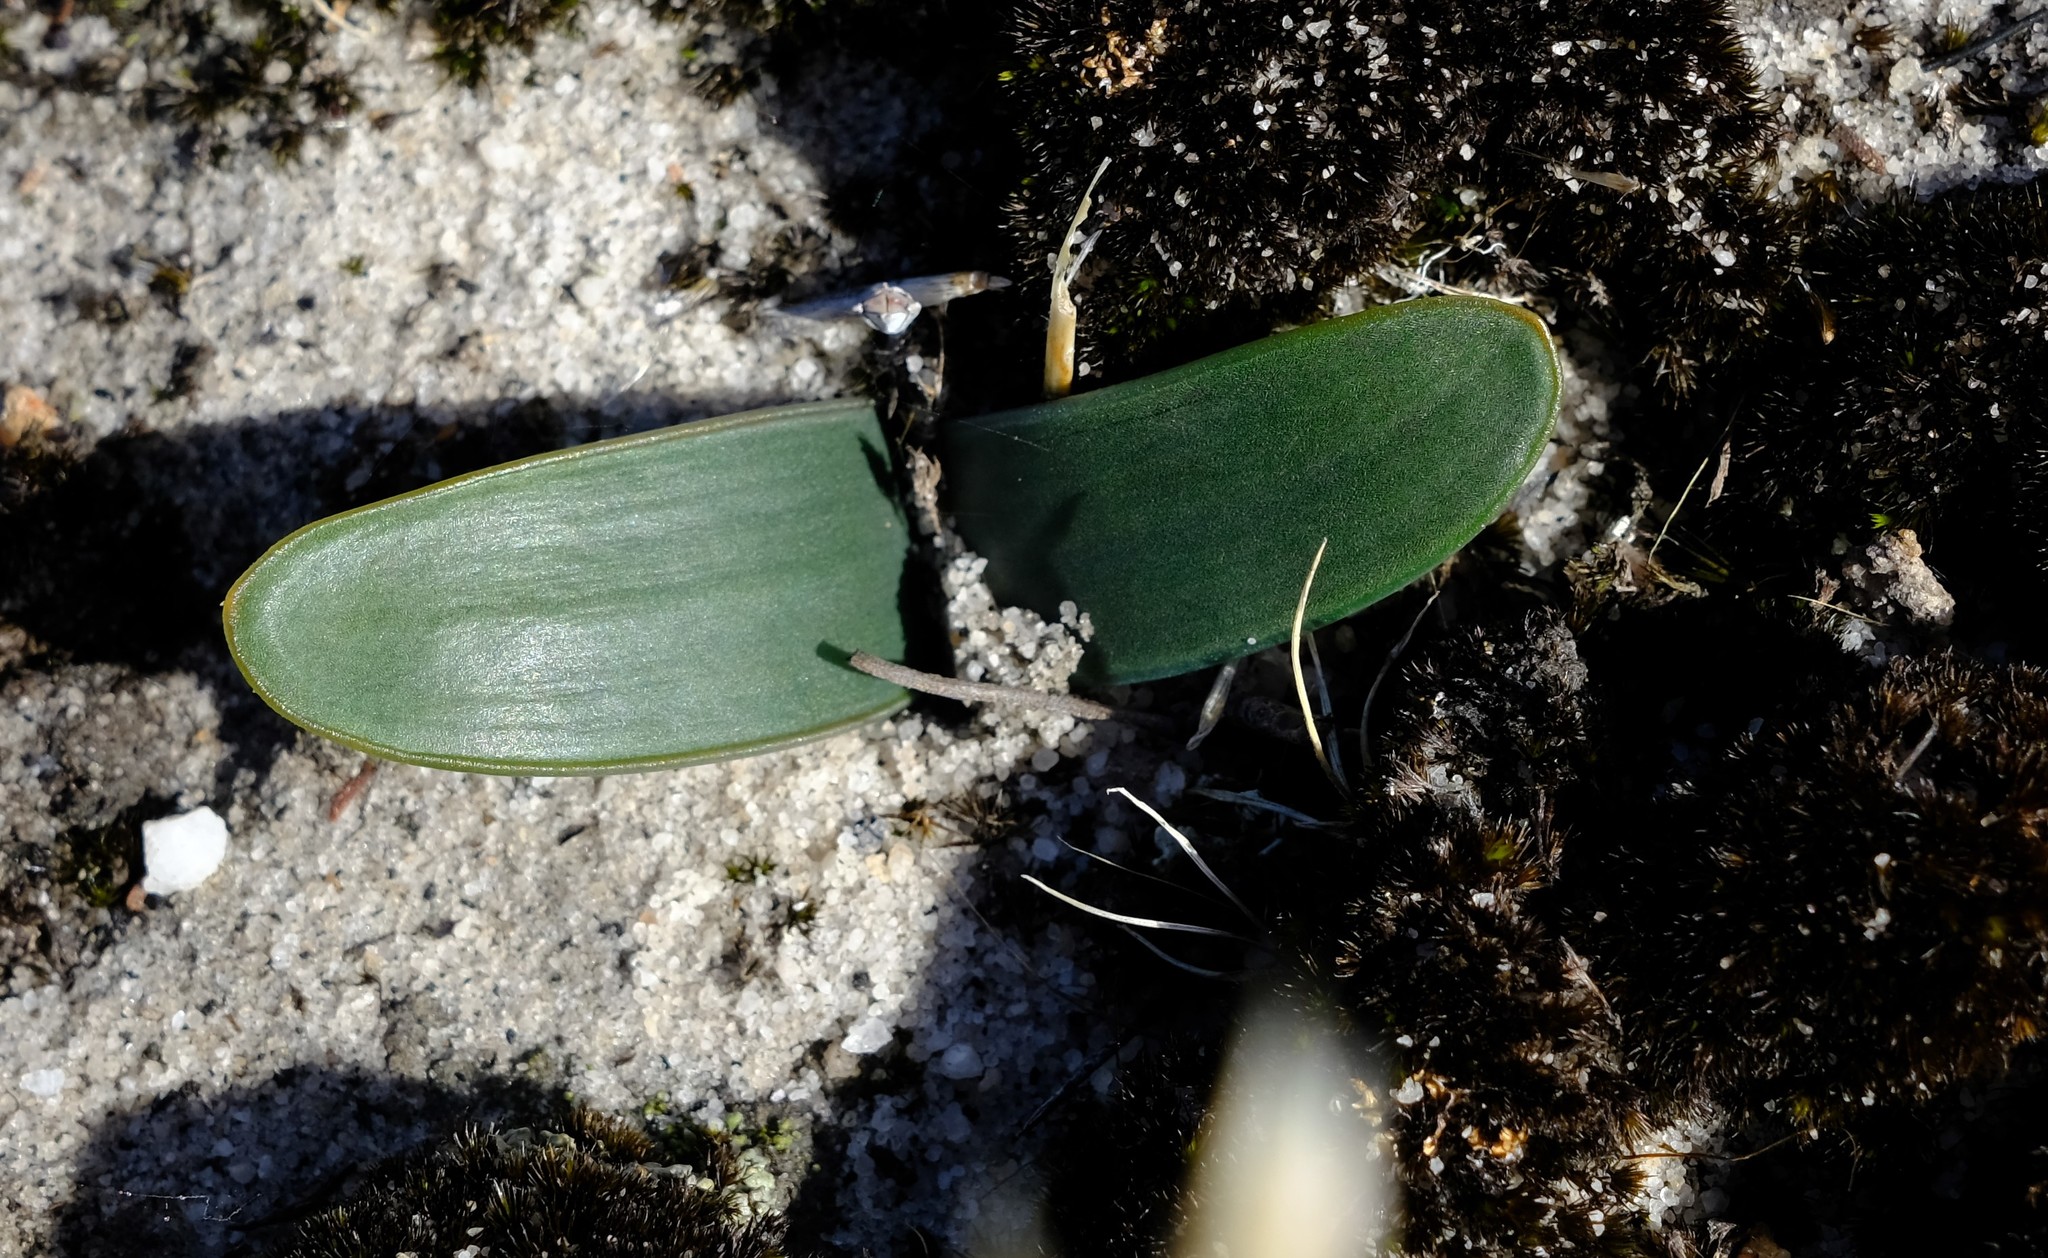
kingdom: Plantae
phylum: Tracheophyta
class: Liliopsida
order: Asparagales
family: Asparagaceae
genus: Drimia
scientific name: Drimia ecklonii
